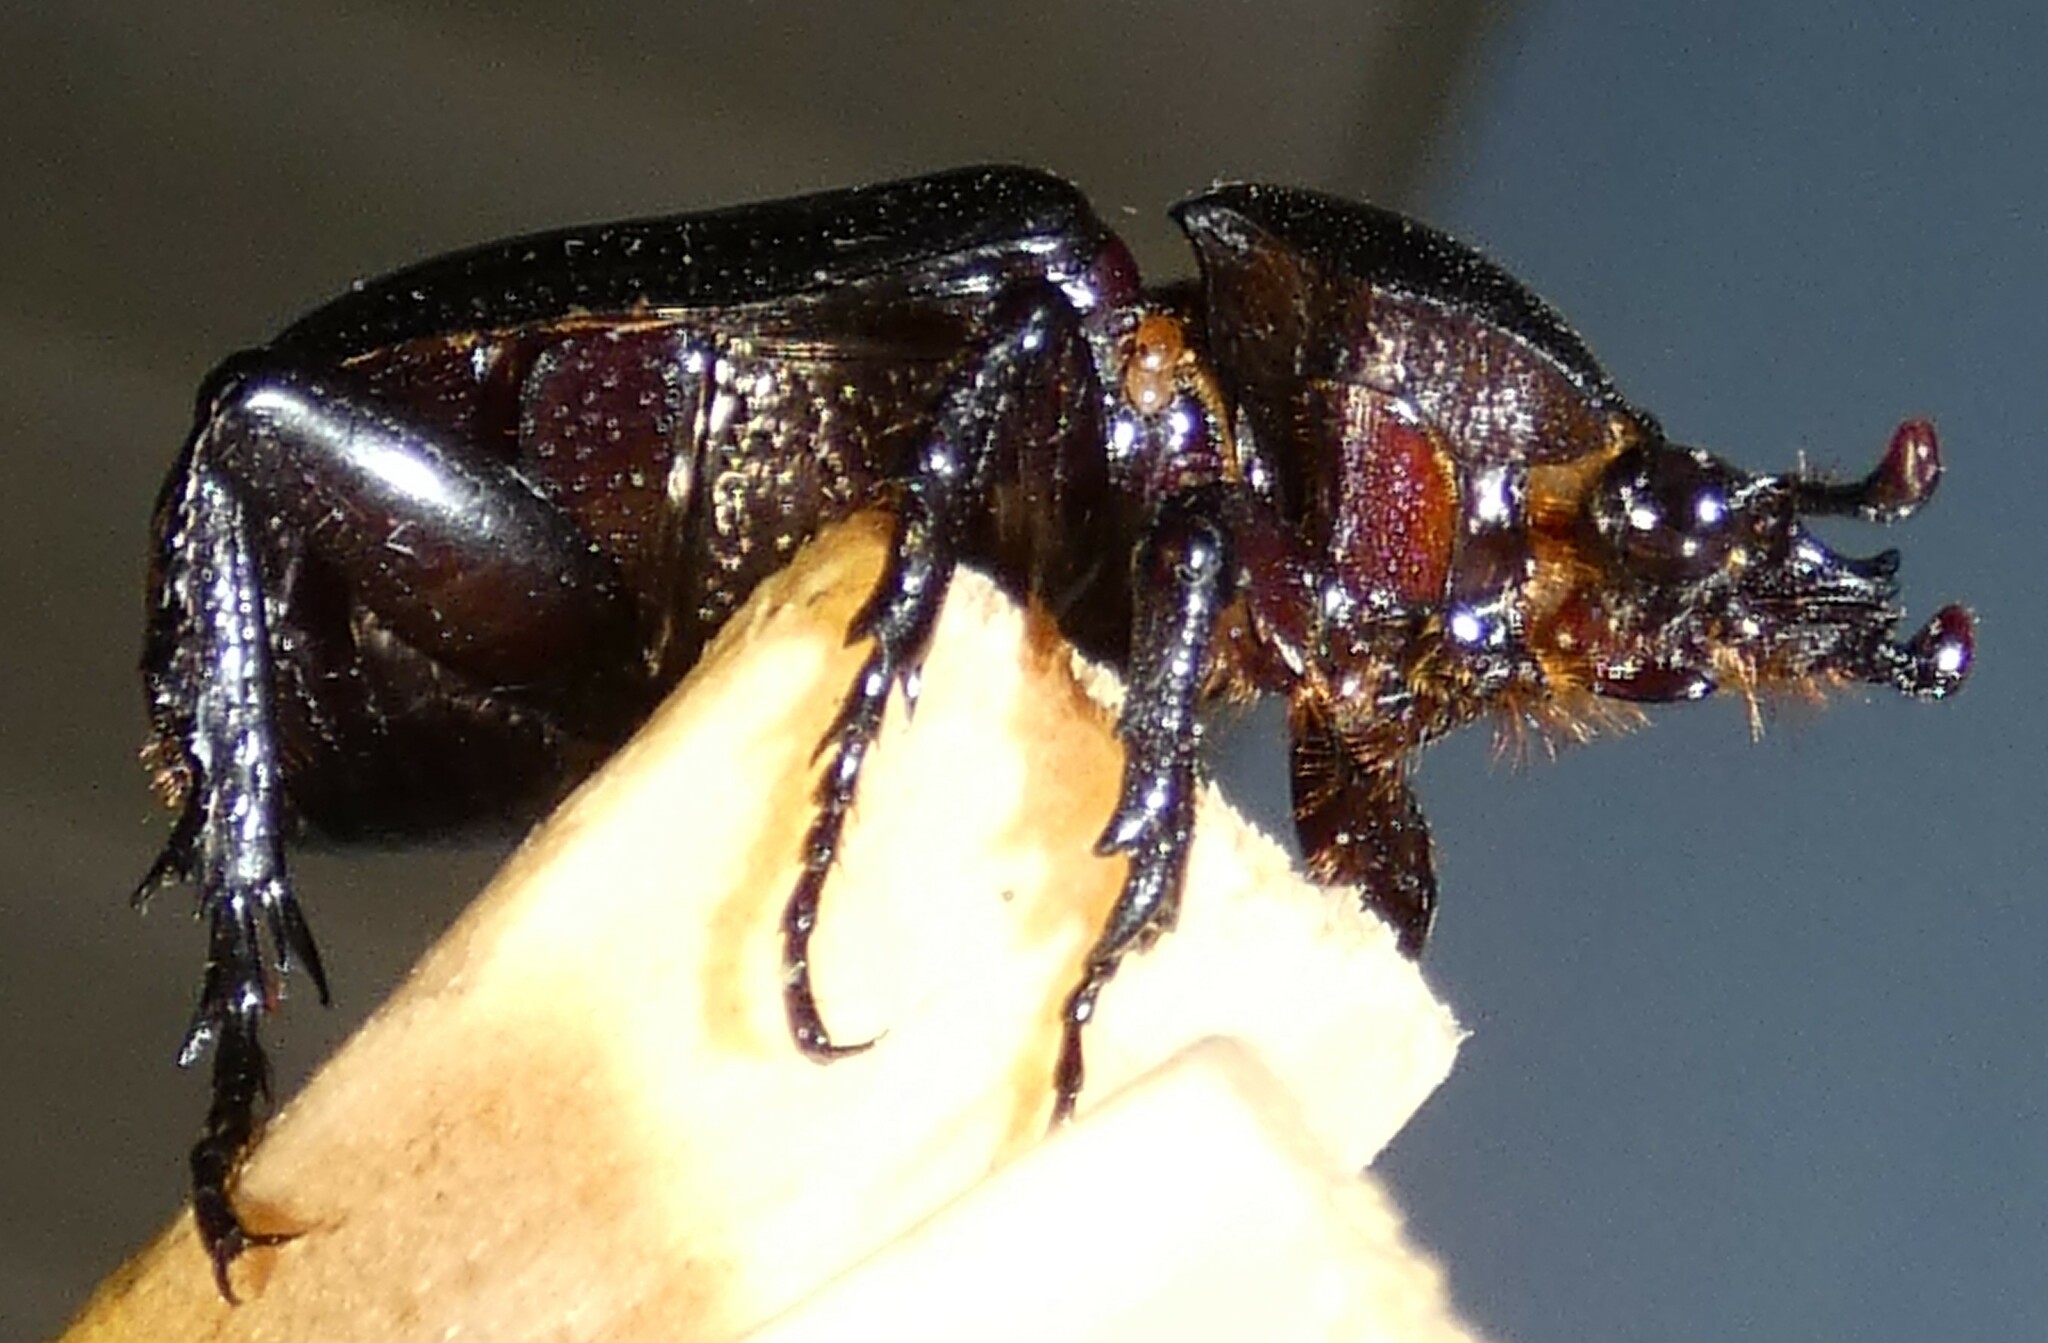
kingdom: Animalia
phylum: Arthropoda
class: Insecta
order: Coleoptera
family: Scarabaeidae
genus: Phileurus
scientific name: Phileurus valgus
